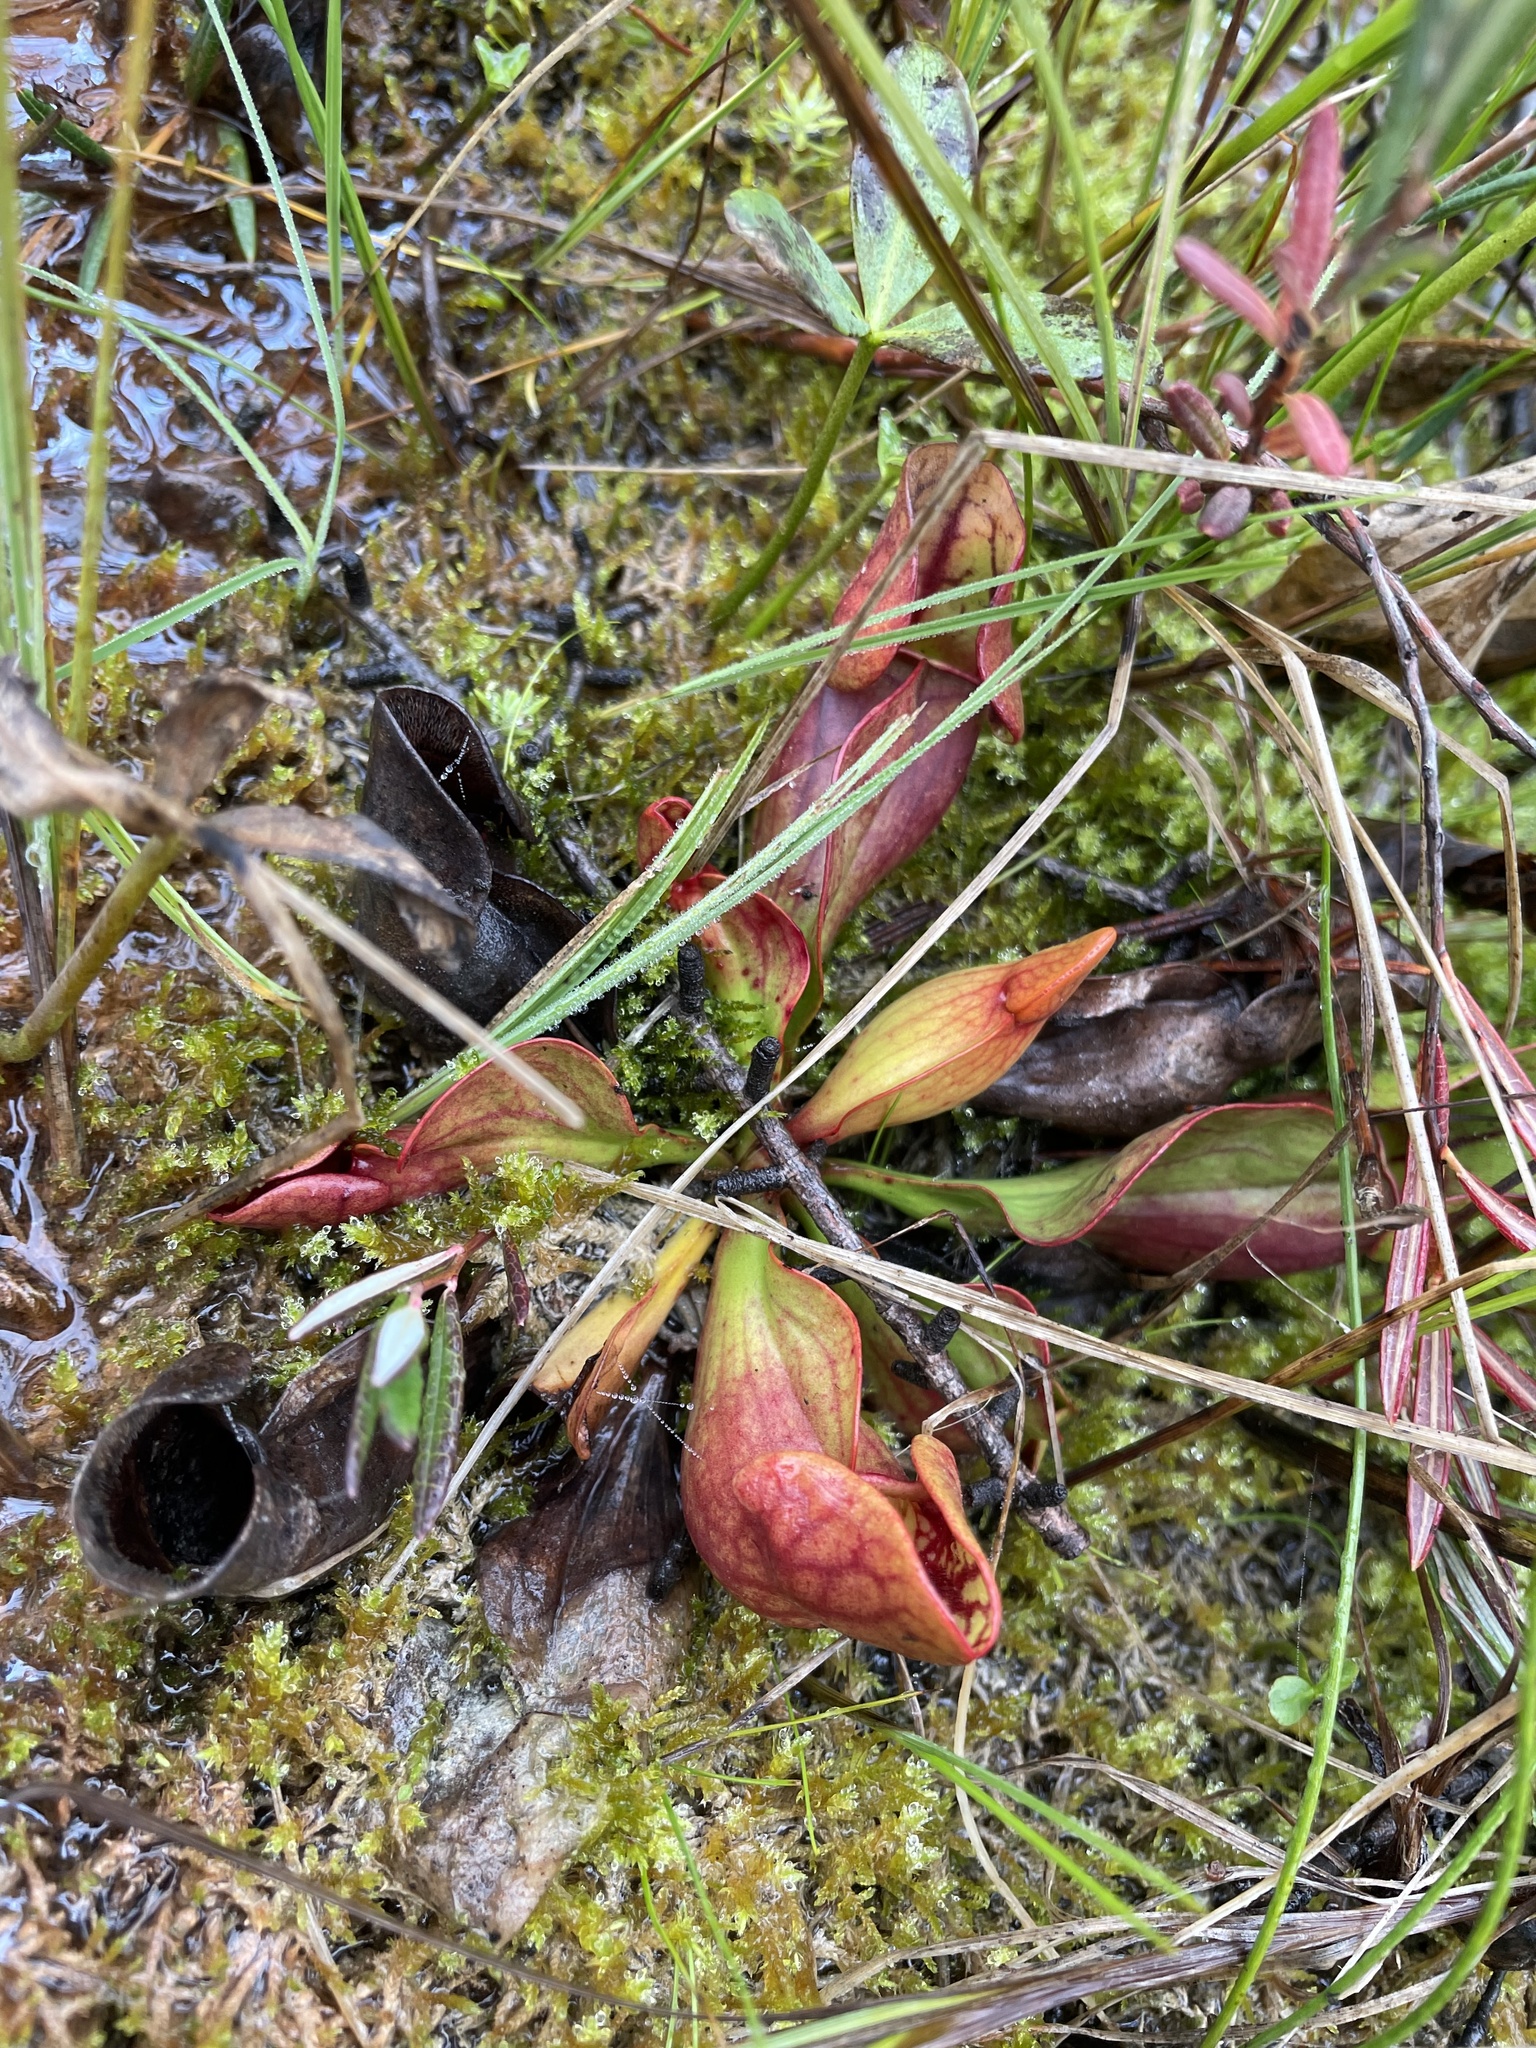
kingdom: Plantae
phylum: Tracheophyta
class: Magnoliopsida
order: Ericales
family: Sarraceniaceae
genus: Sarracenia
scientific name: Sarracenia purpurea
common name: Pitcherplant
